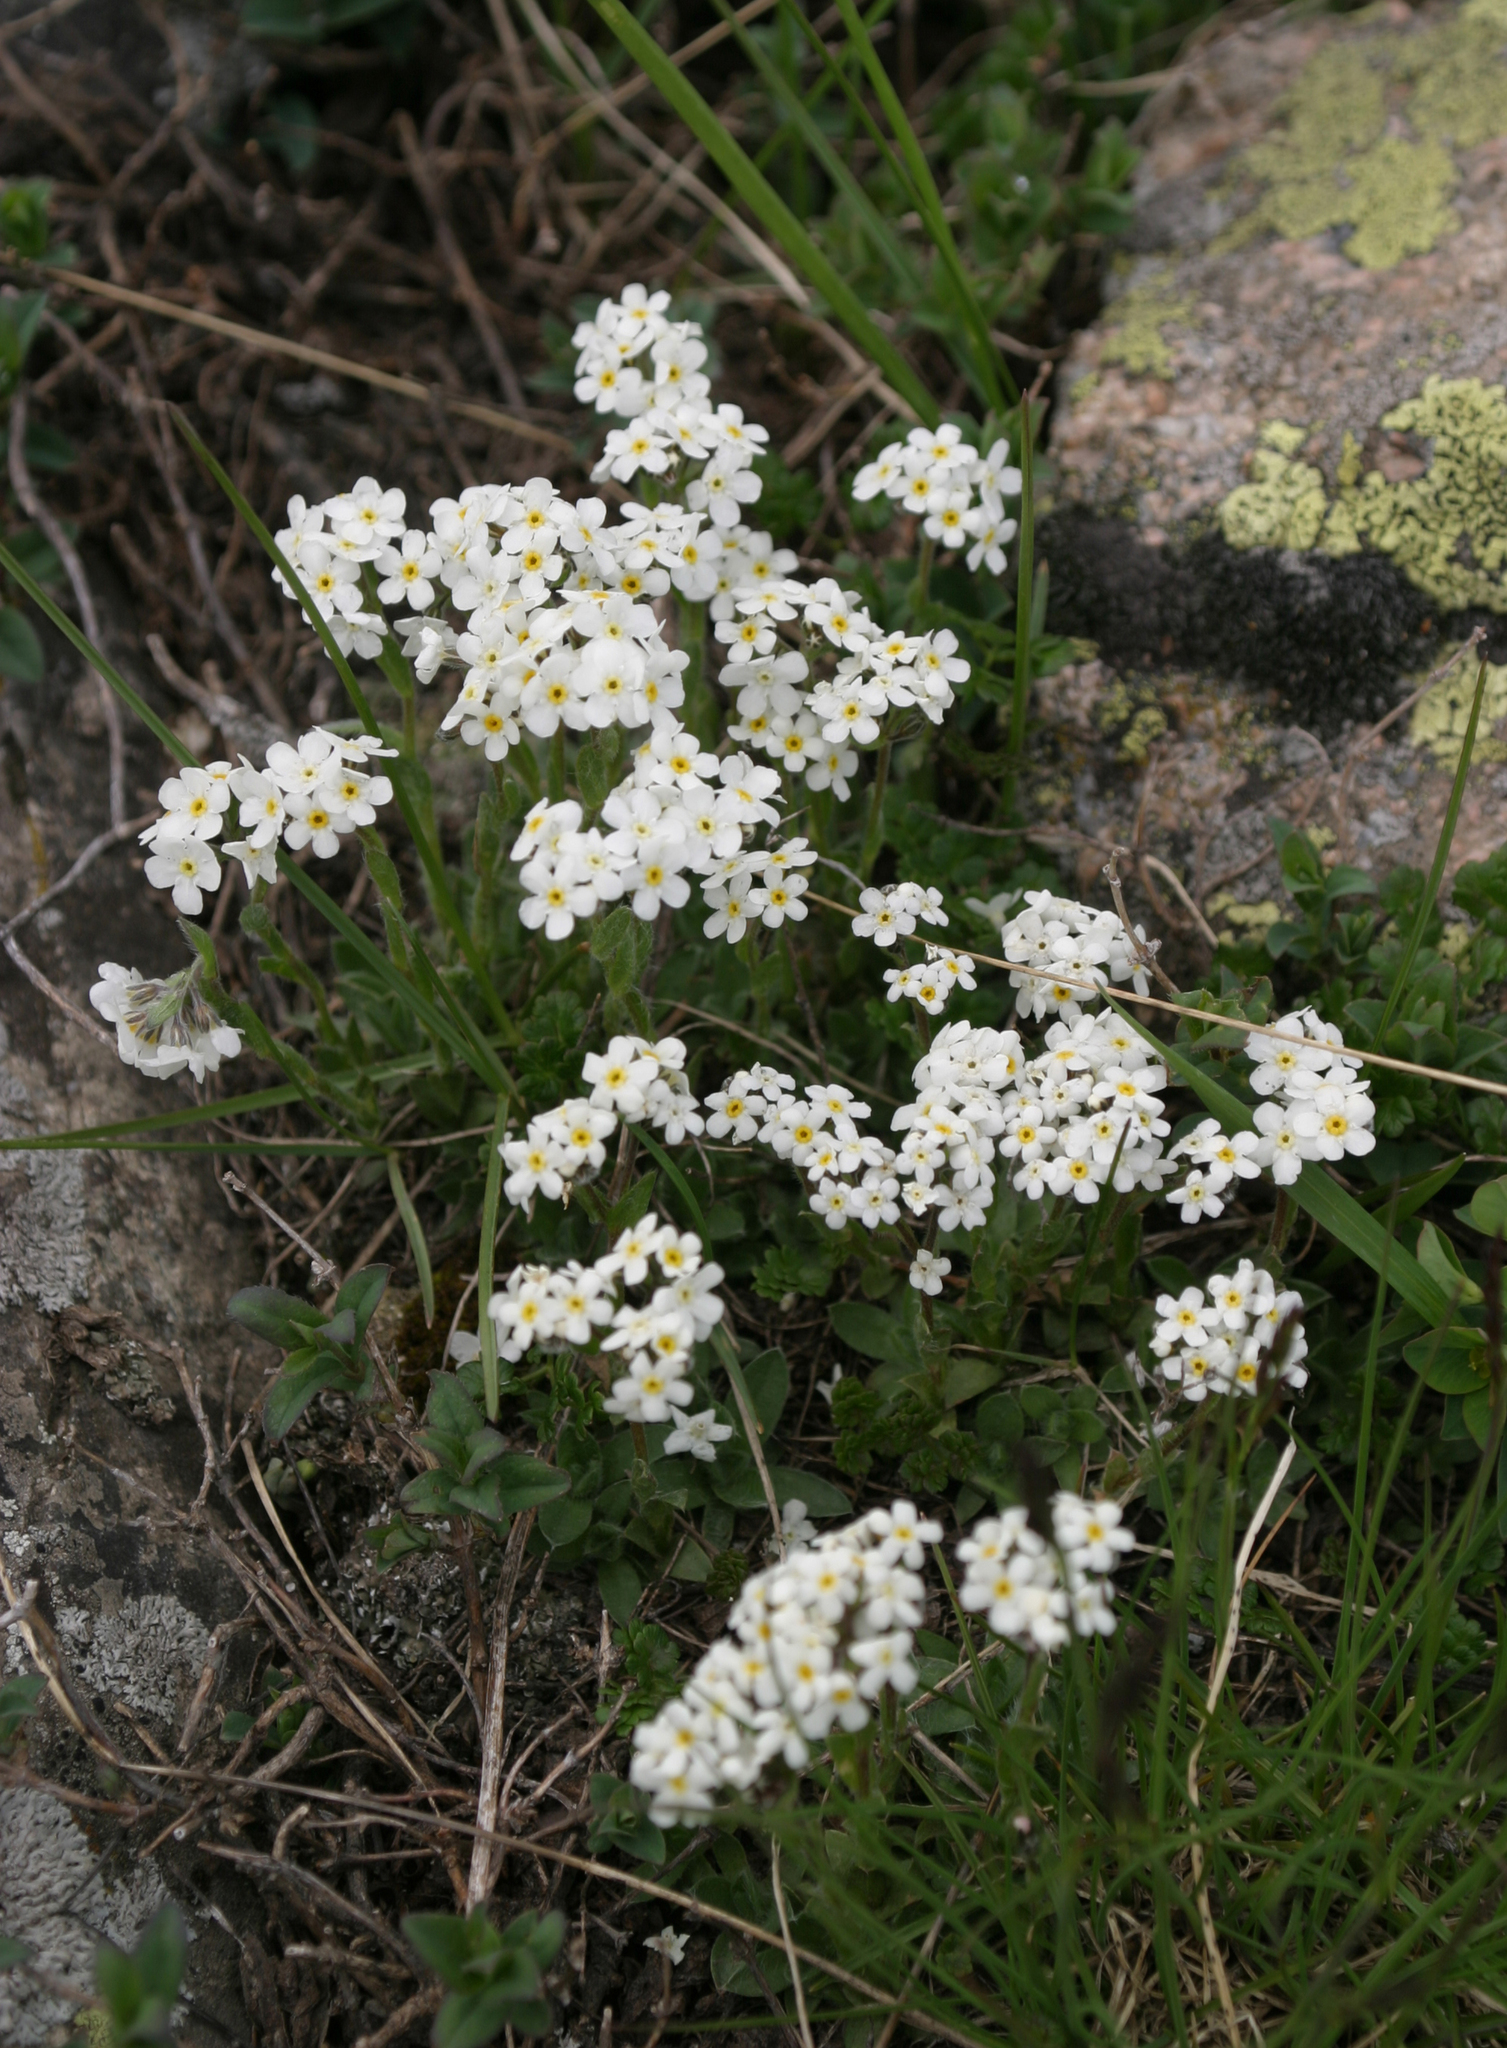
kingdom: Plantae
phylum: Tracheophyta
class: Magnoliopsida
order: Boraginales
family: Boraginaceae
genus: Eritrichium
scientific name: Eritrichium villosum
